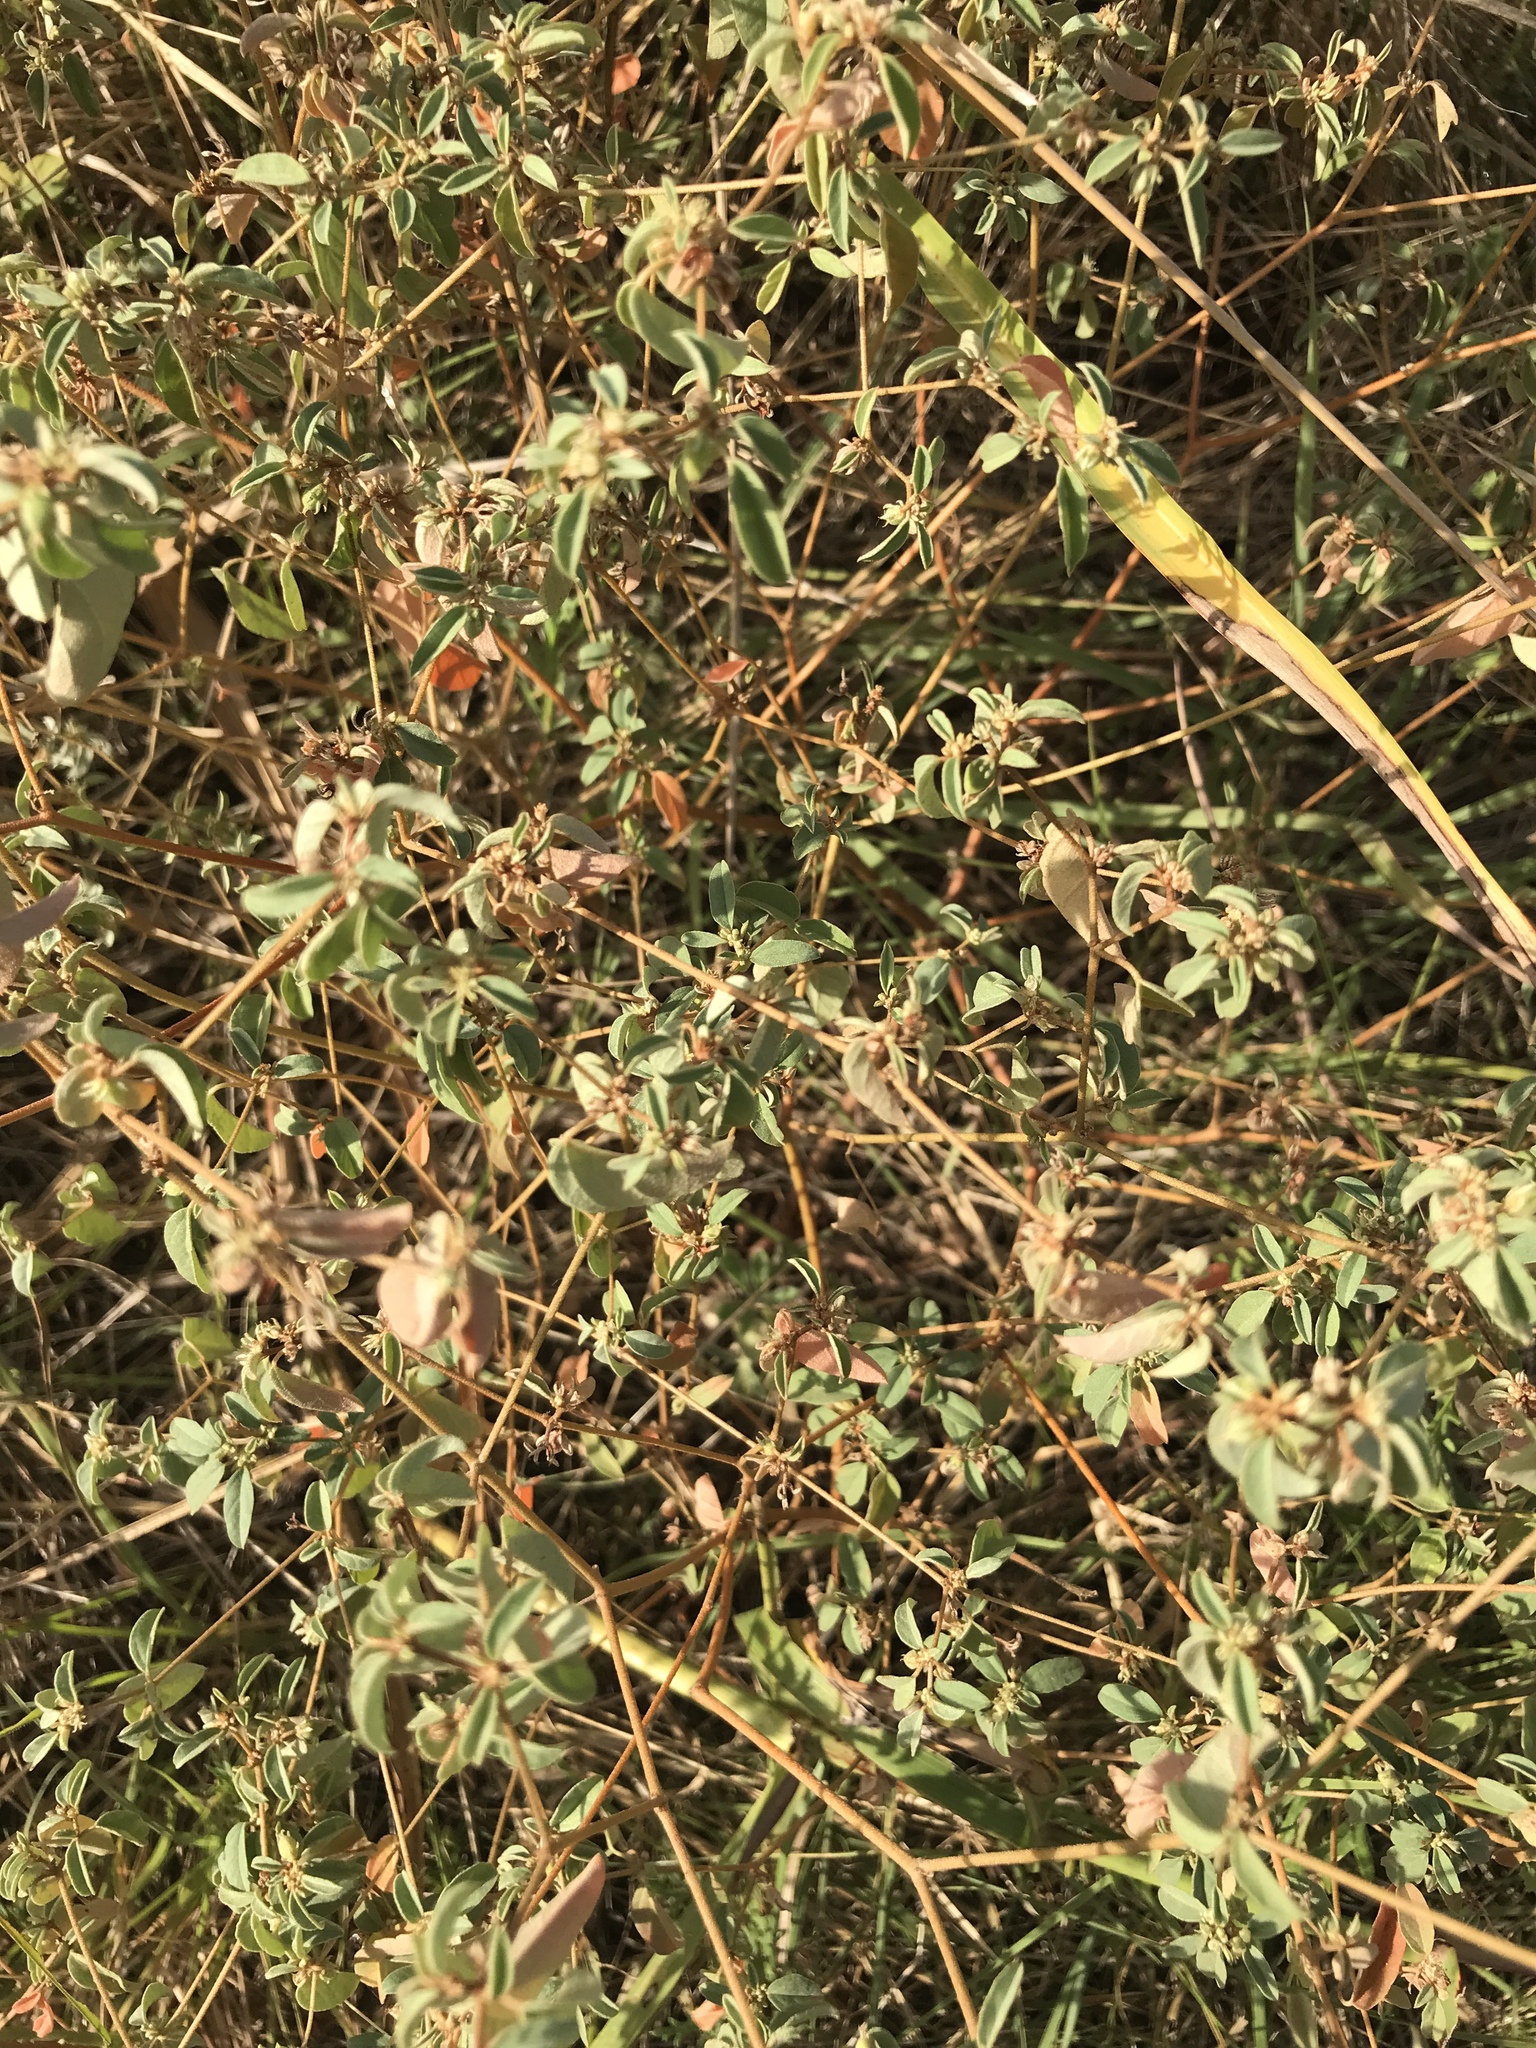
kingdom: Plantae
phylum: Tracheophyta
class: Magnoliopsida
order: Malpighiales
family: Euphorbiaceae
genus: Croton
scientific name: Croton monanthogynus
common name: One-seed croton
